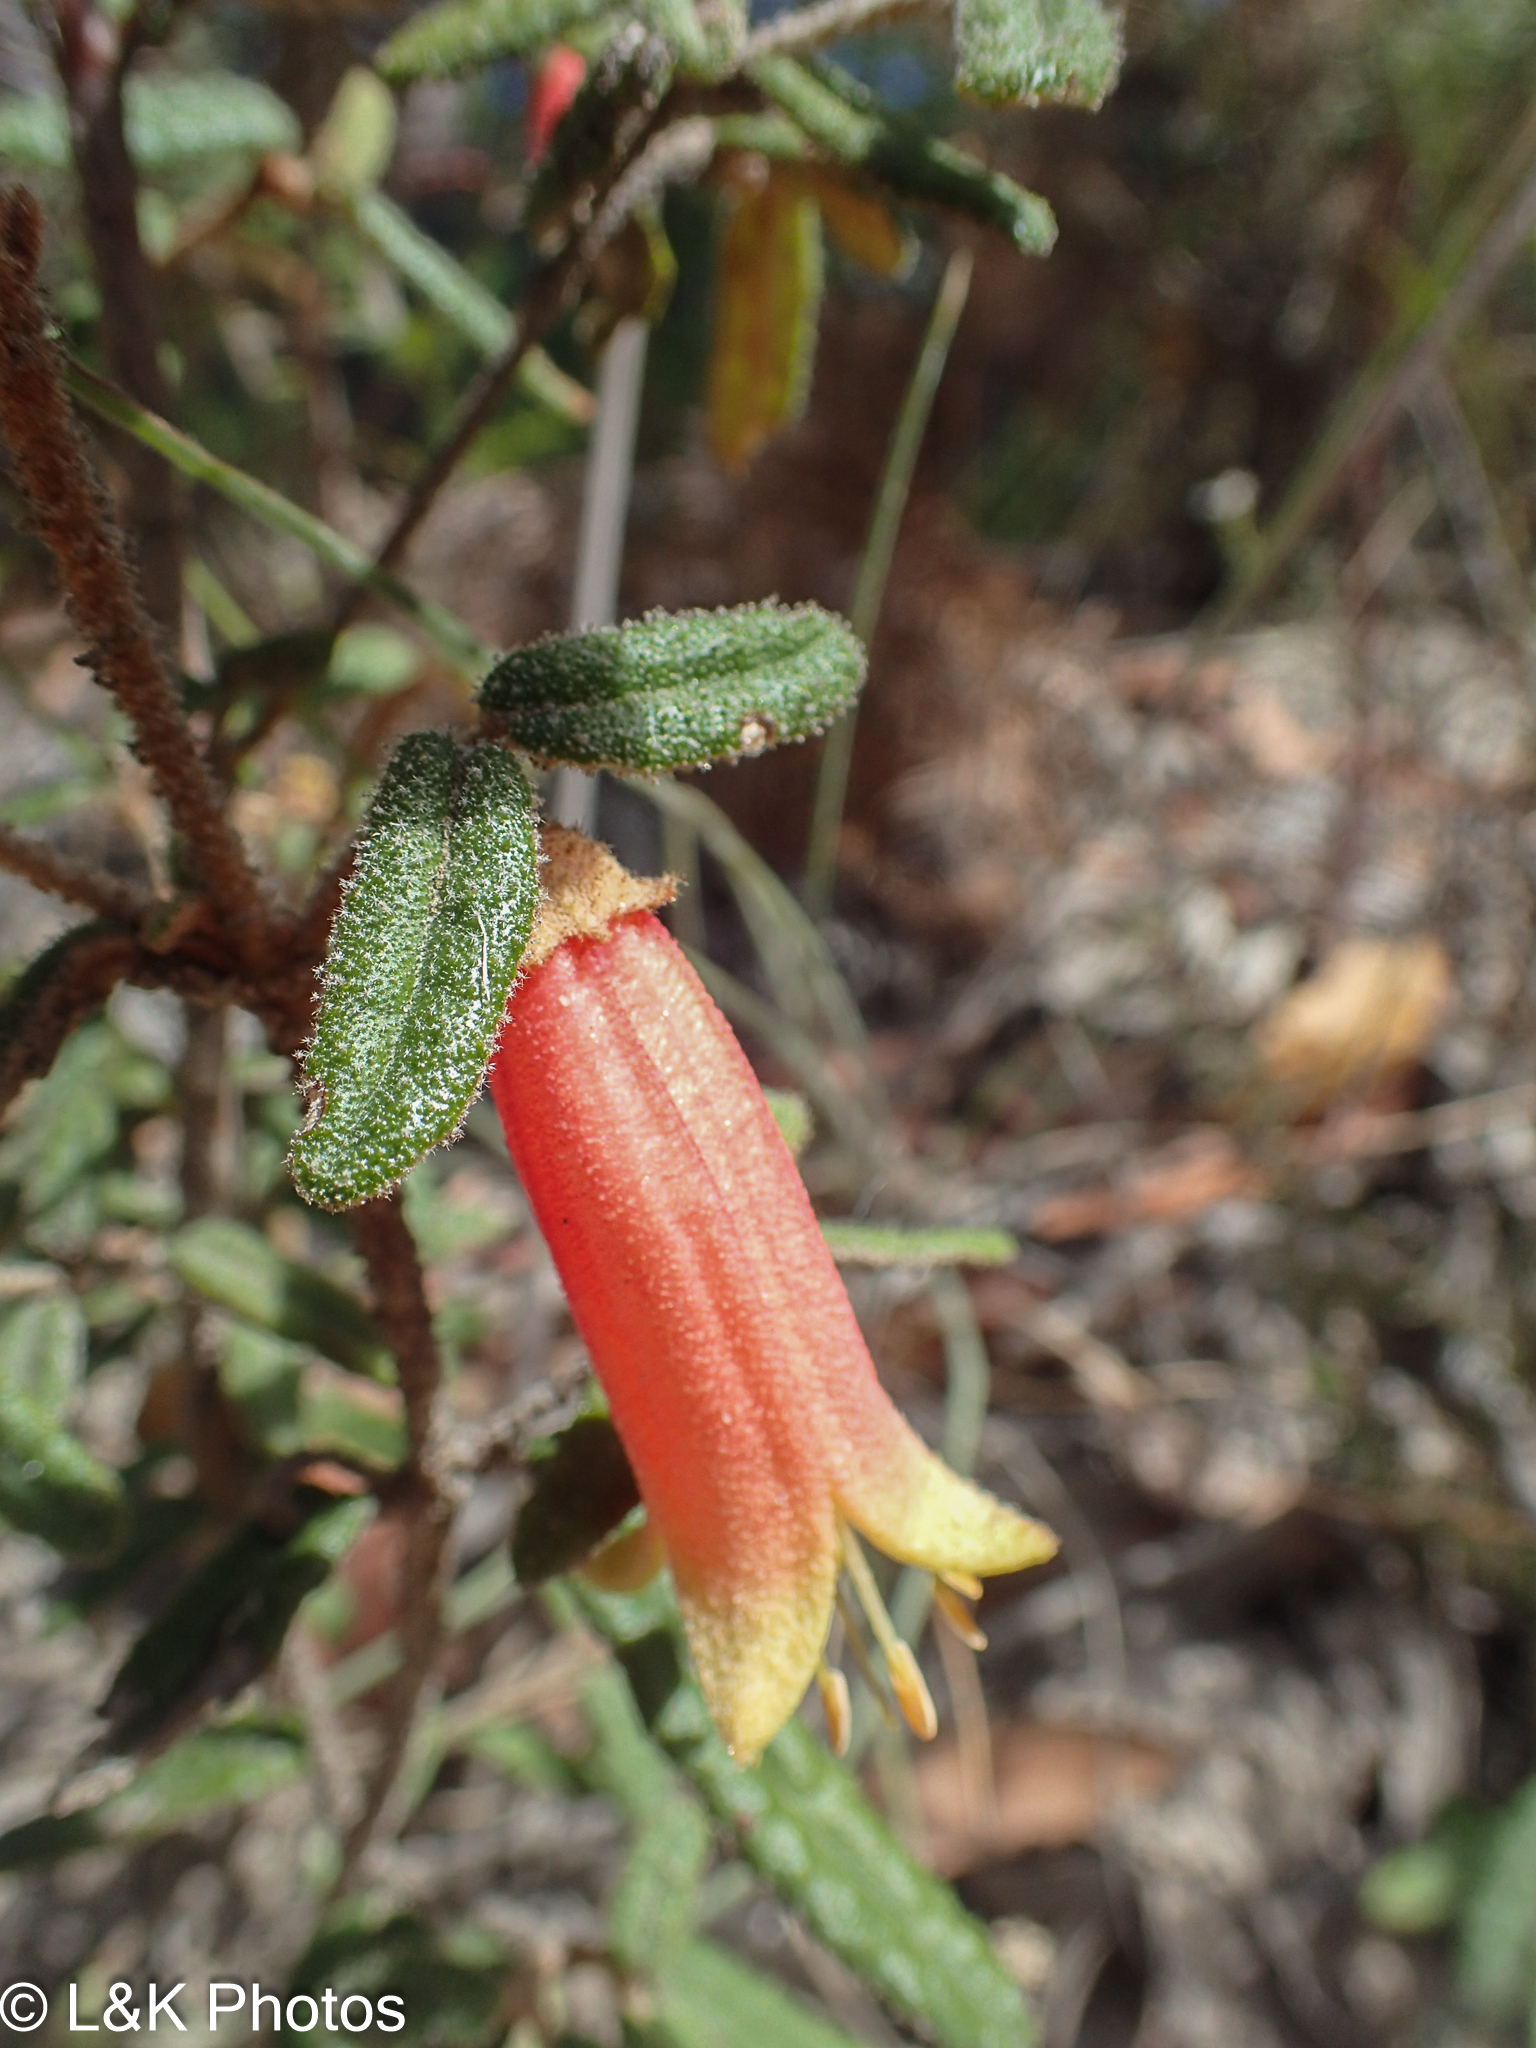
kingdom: Plantae
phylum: Tracheophyta
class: Magnoliopsida
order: Sapindales
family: Rutaceae
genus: Correa
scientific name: Correa reflexa
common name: Common correa
